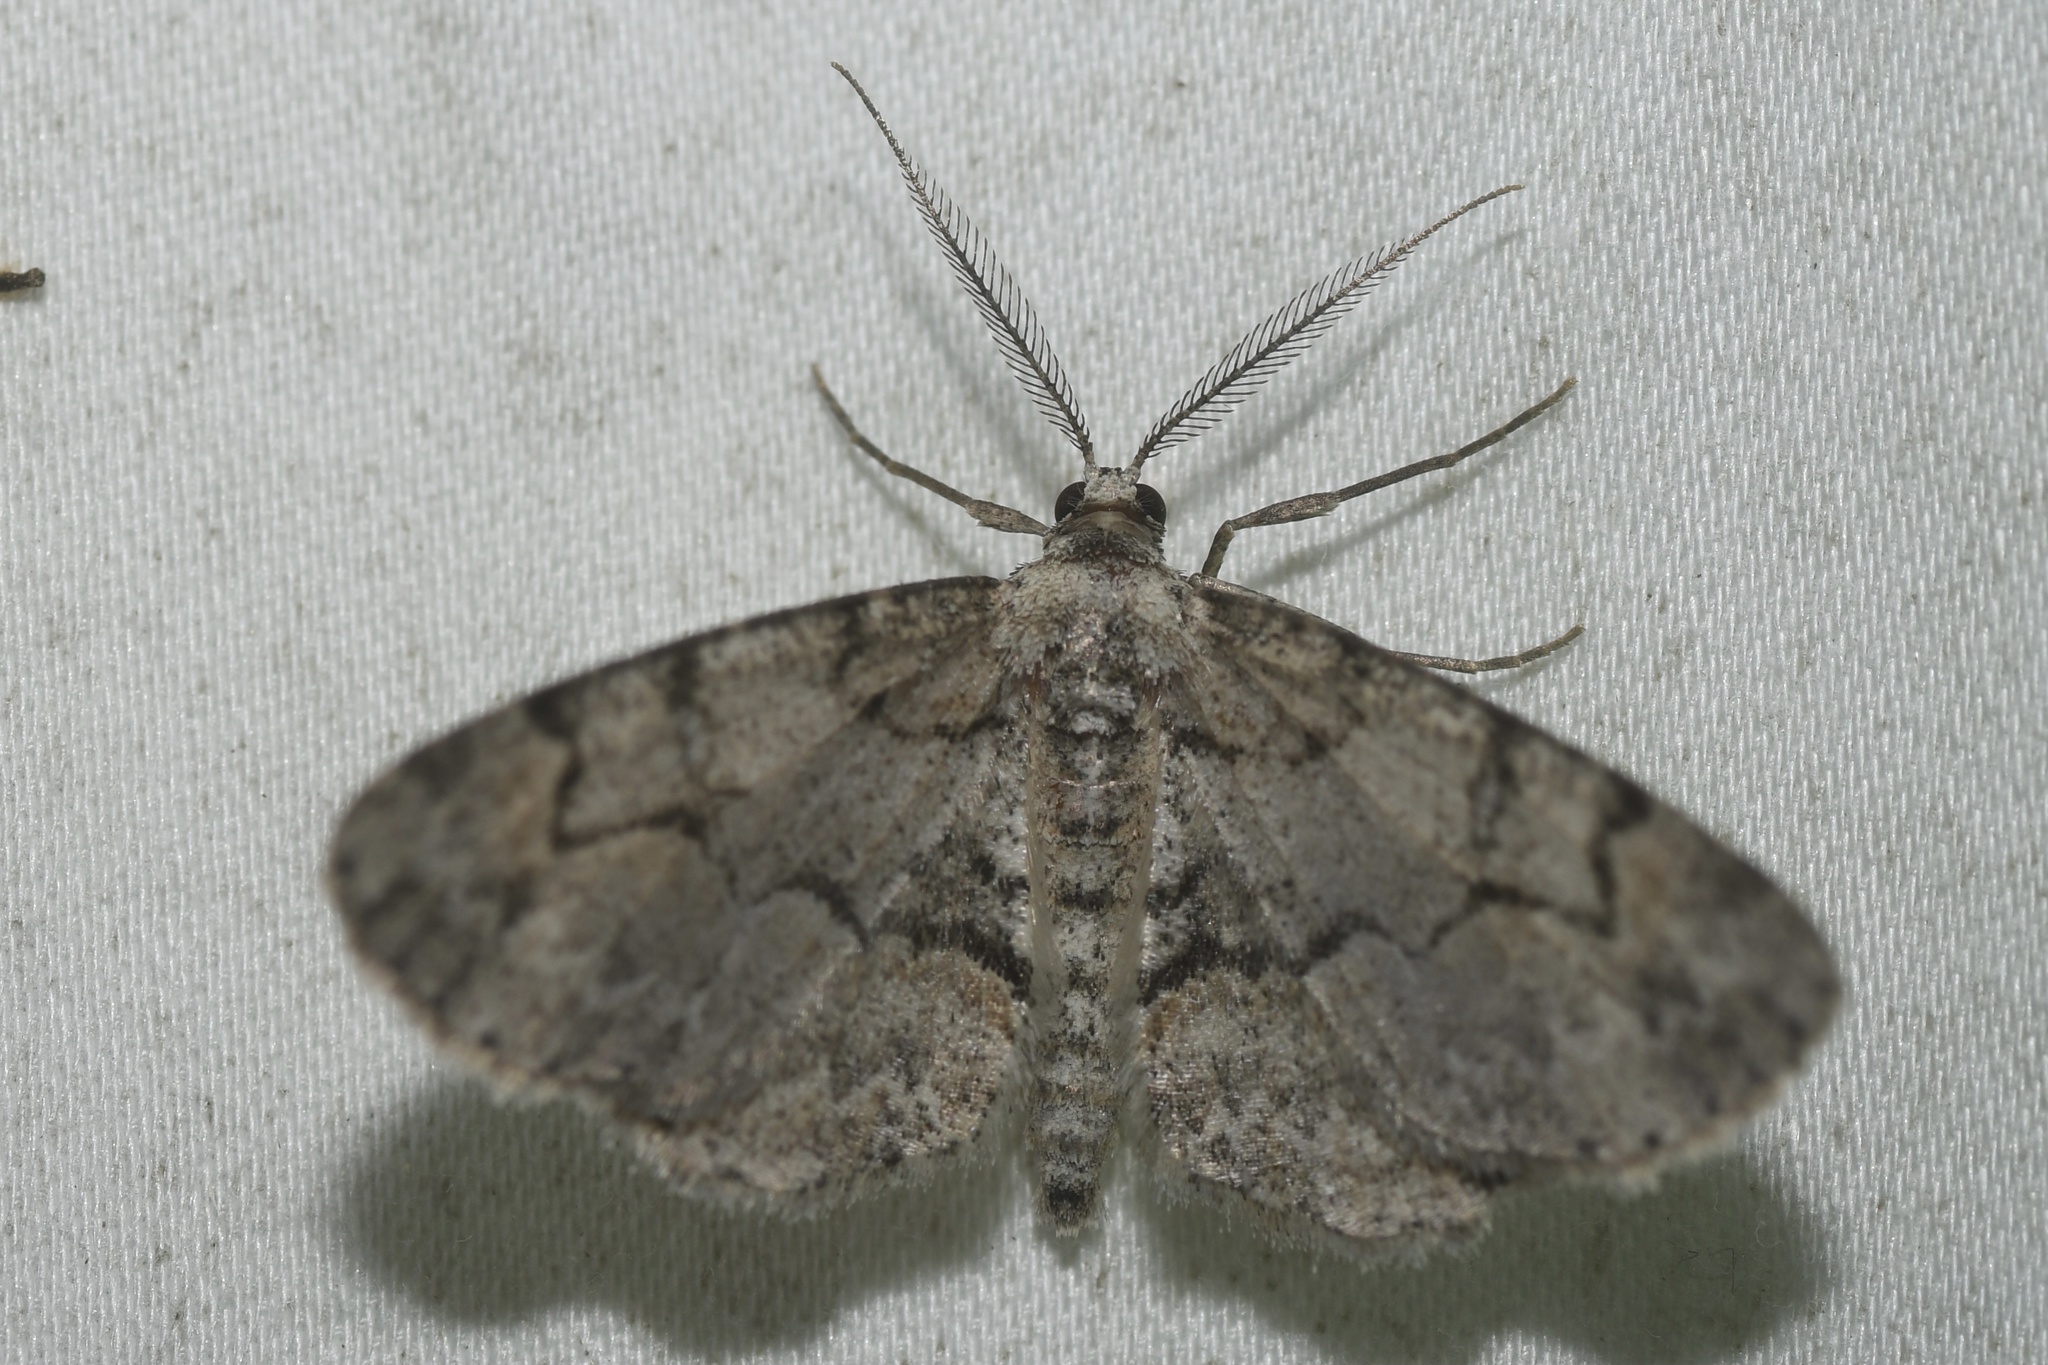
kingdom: Animalia
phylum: Arthropoda
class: Insecta
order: Lepidoptera
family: Geometridae
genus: Iridopsis
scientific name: Iridopsis ephyraria
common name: Pale-winged gray
